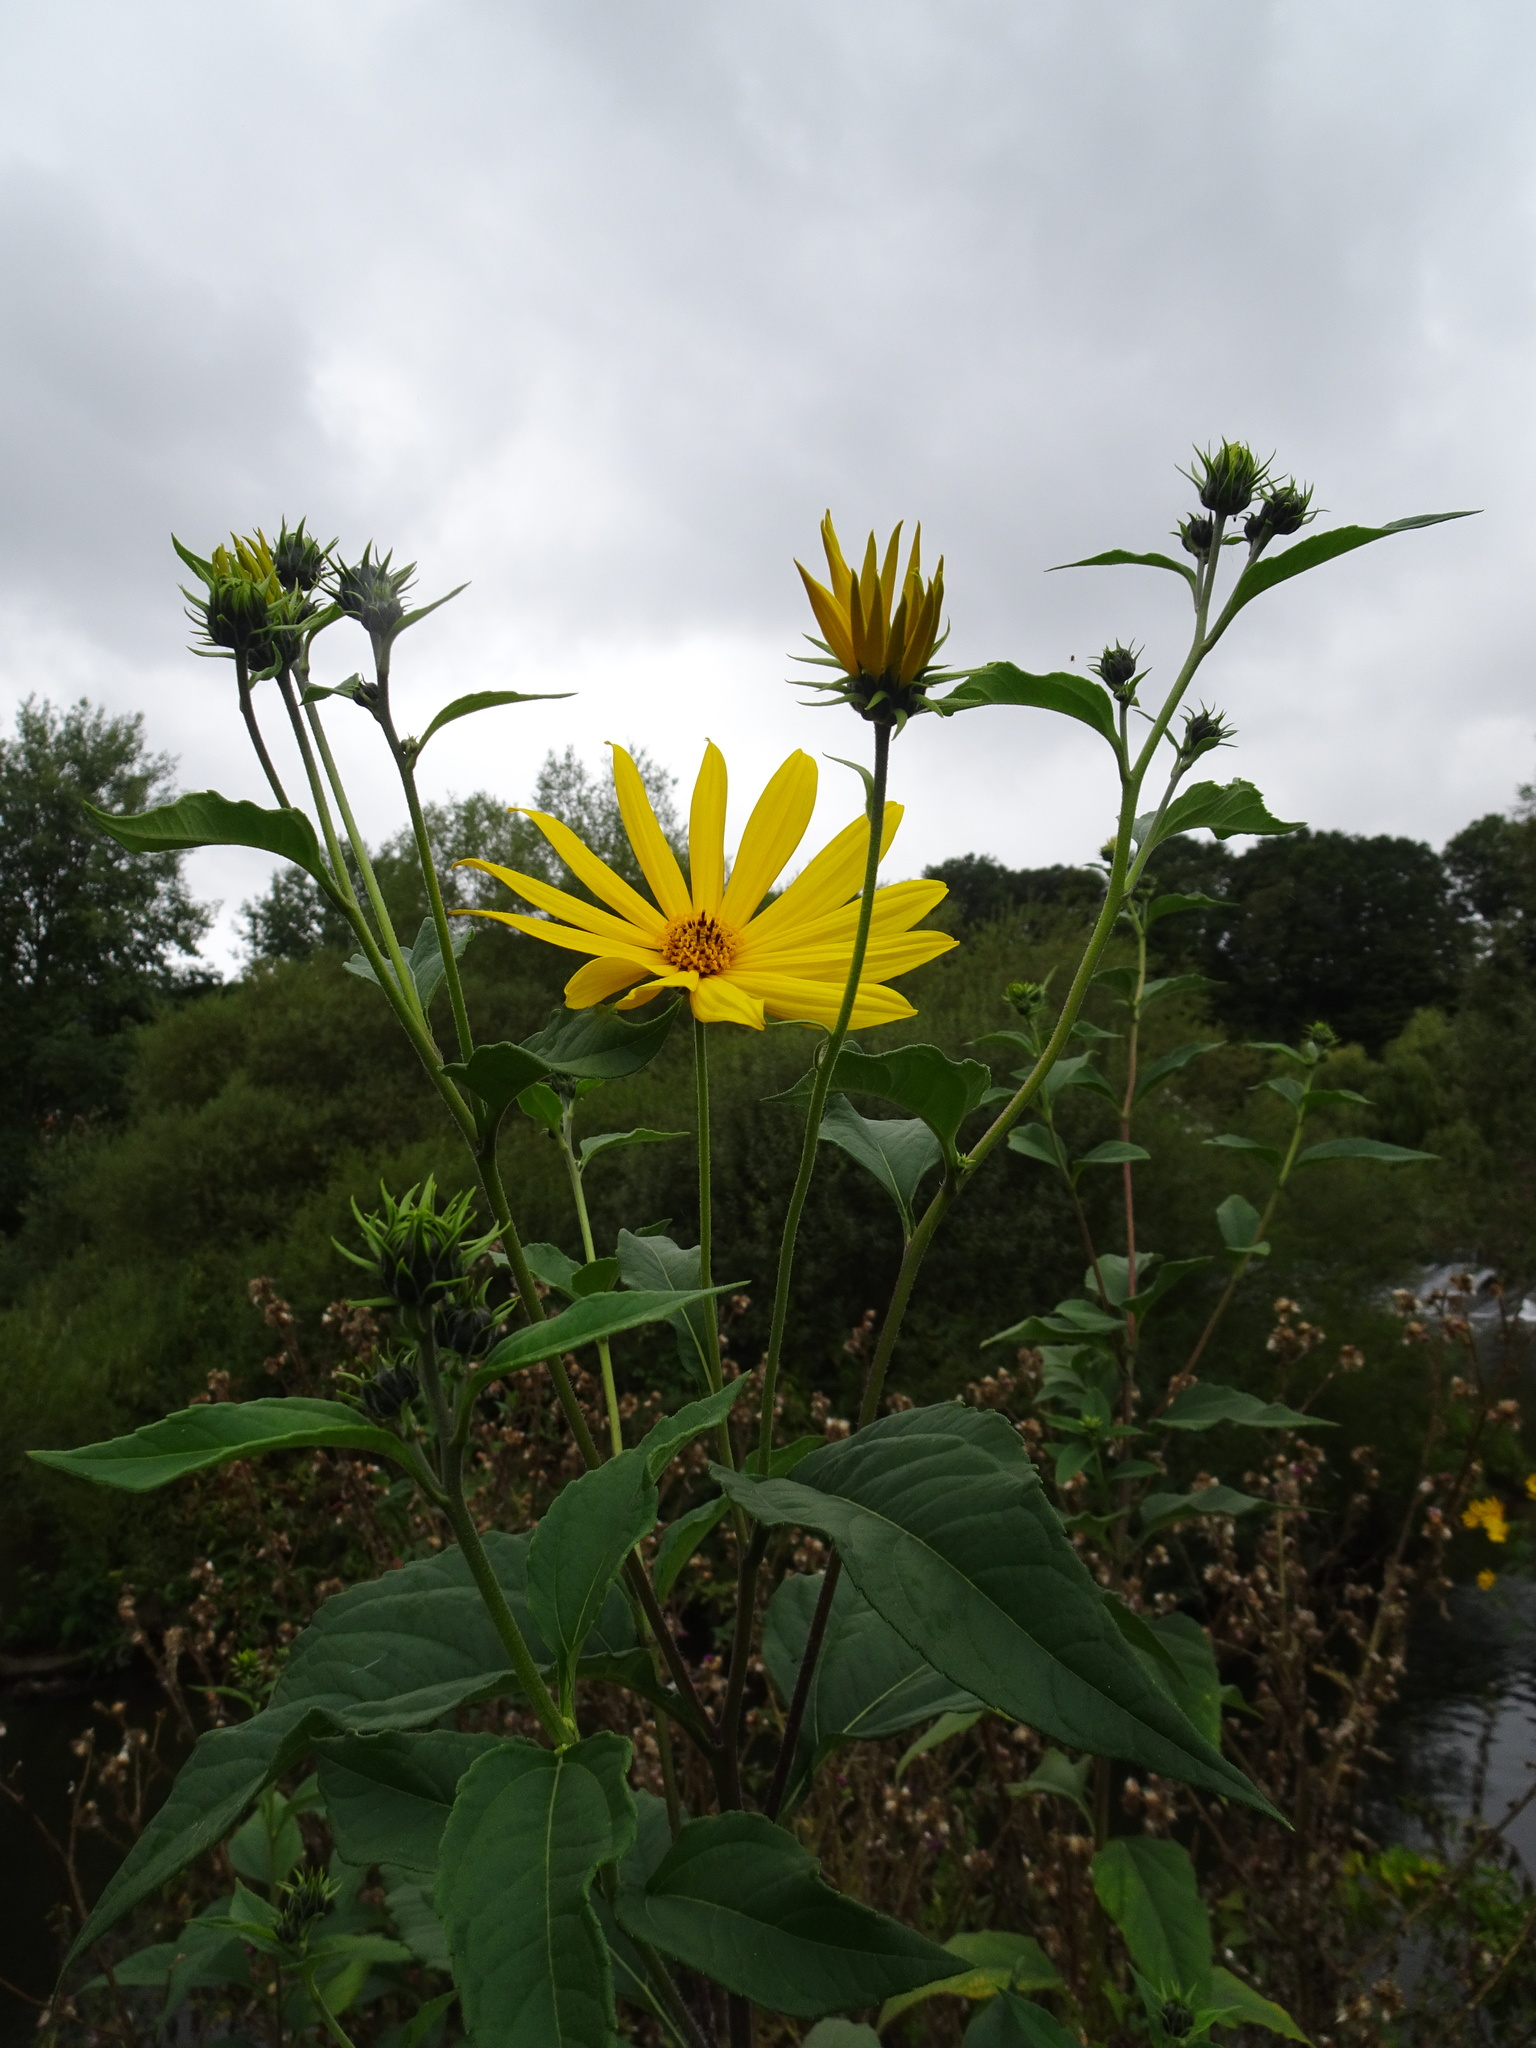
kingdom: Plantae
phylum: Tracheophyta
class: Magnoliopsida
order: Asterales
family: Asteraceae
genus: Helianthus
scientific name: Helianthus tuberosus
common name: Jerusalem artichoke
